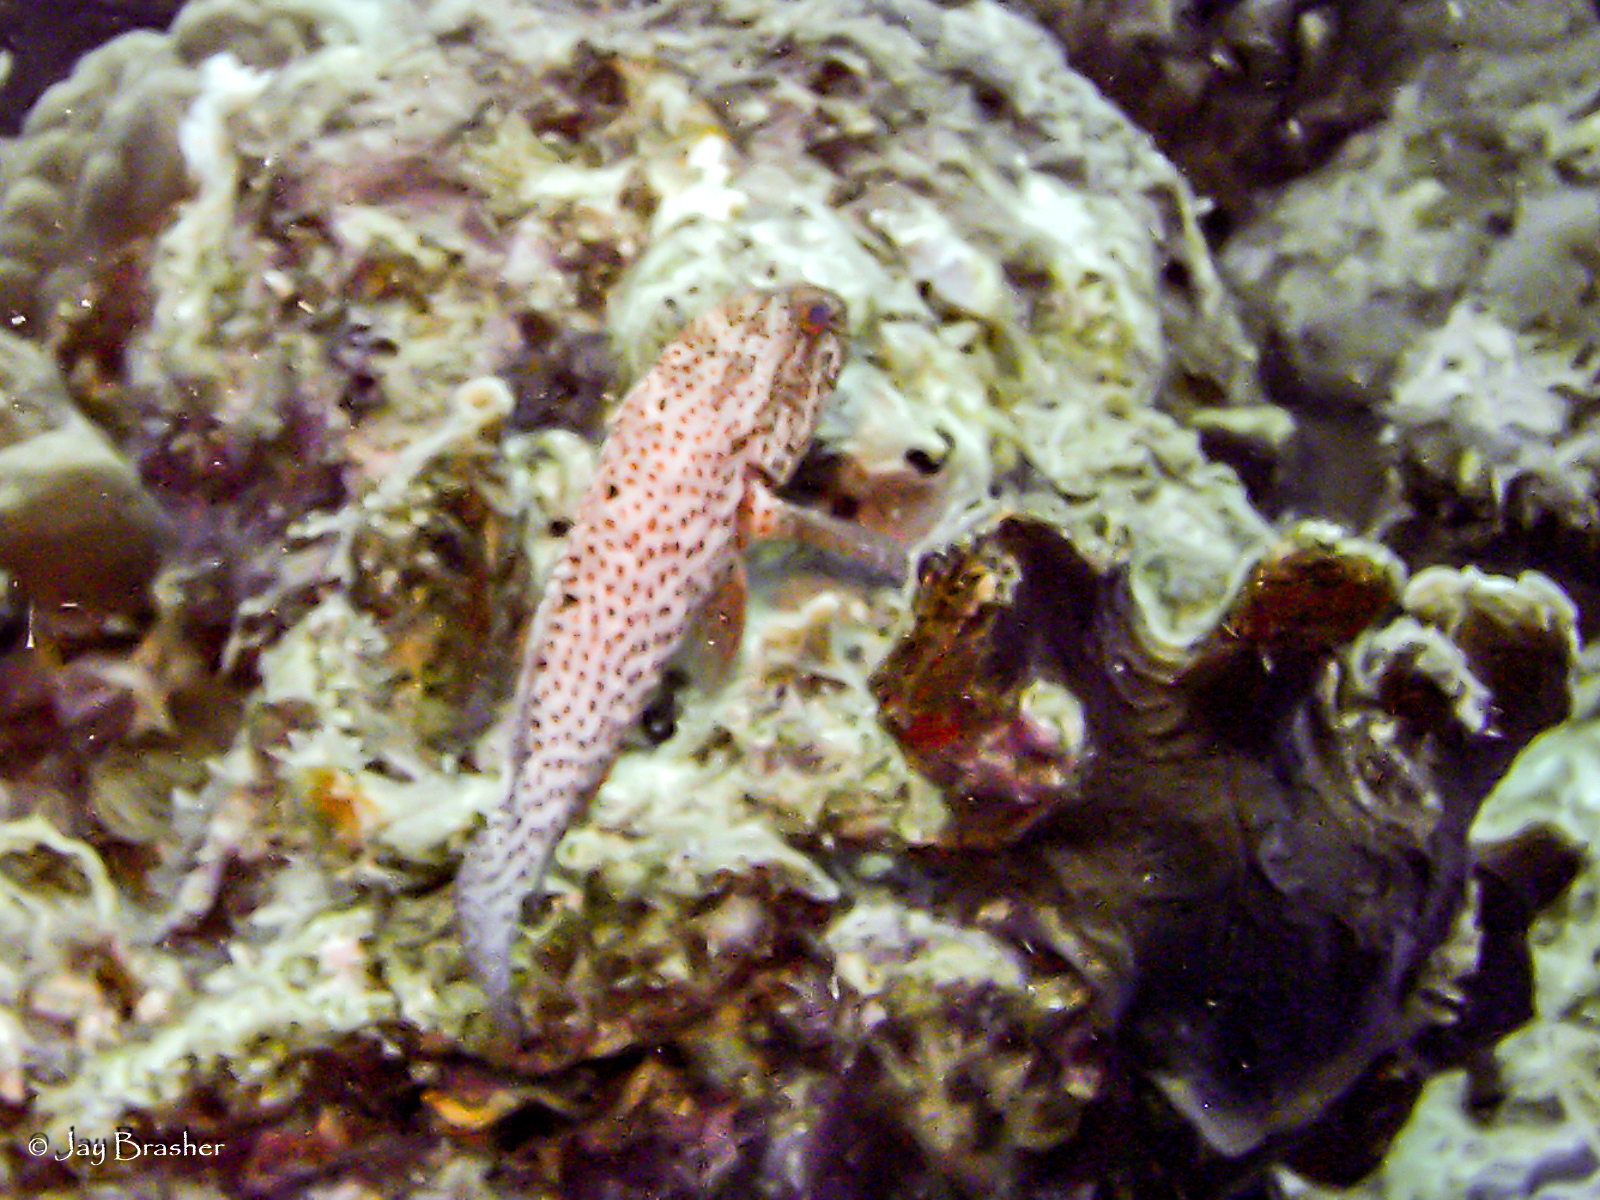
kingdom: Animalia
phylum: Chordata
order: Perciformes
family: Serranidae
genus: Cephalopholis
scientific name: Cephalopholis cruentata
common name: Graysby
